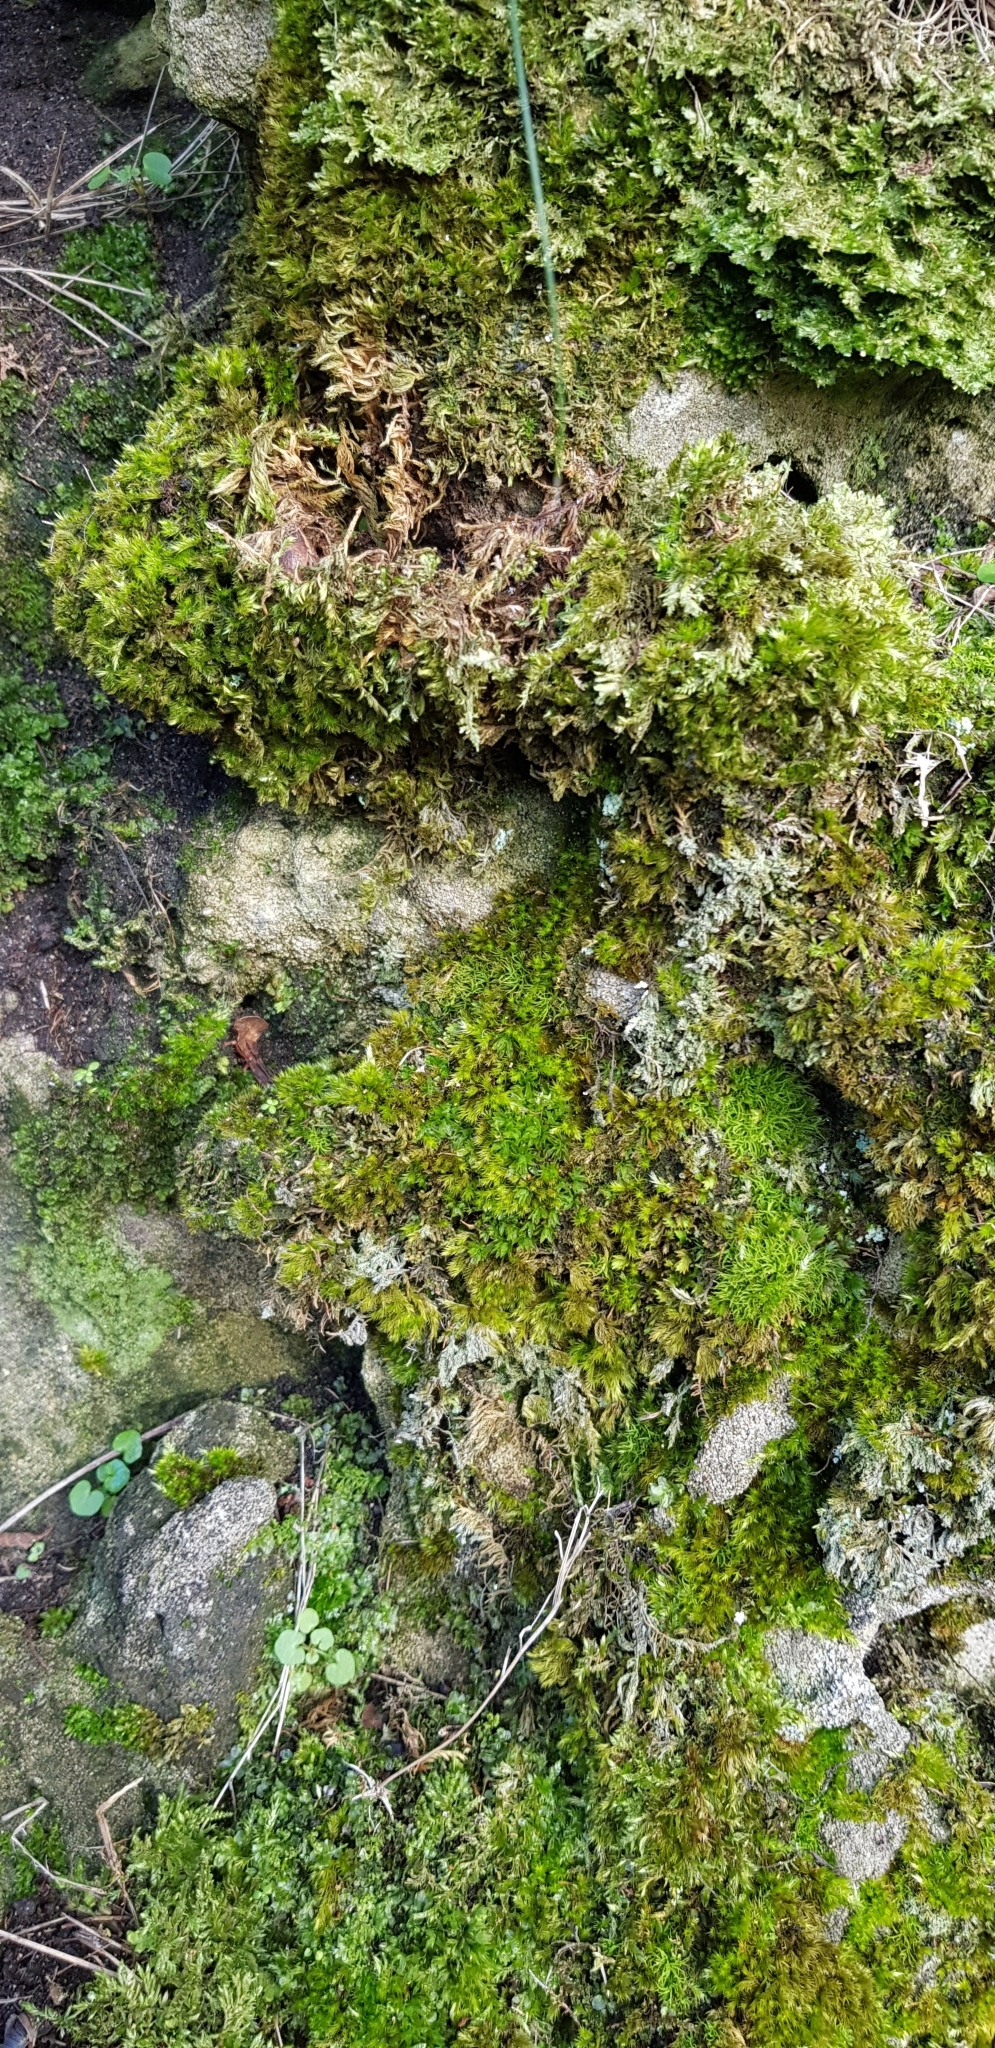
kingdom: Plantae
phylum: Bryophyta
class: Bryopsida
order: Encalyptales
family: Encalyptaceae
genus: Encalypta
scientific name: Encalypta streptocarpa
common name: Spiral extinguisher-moss
